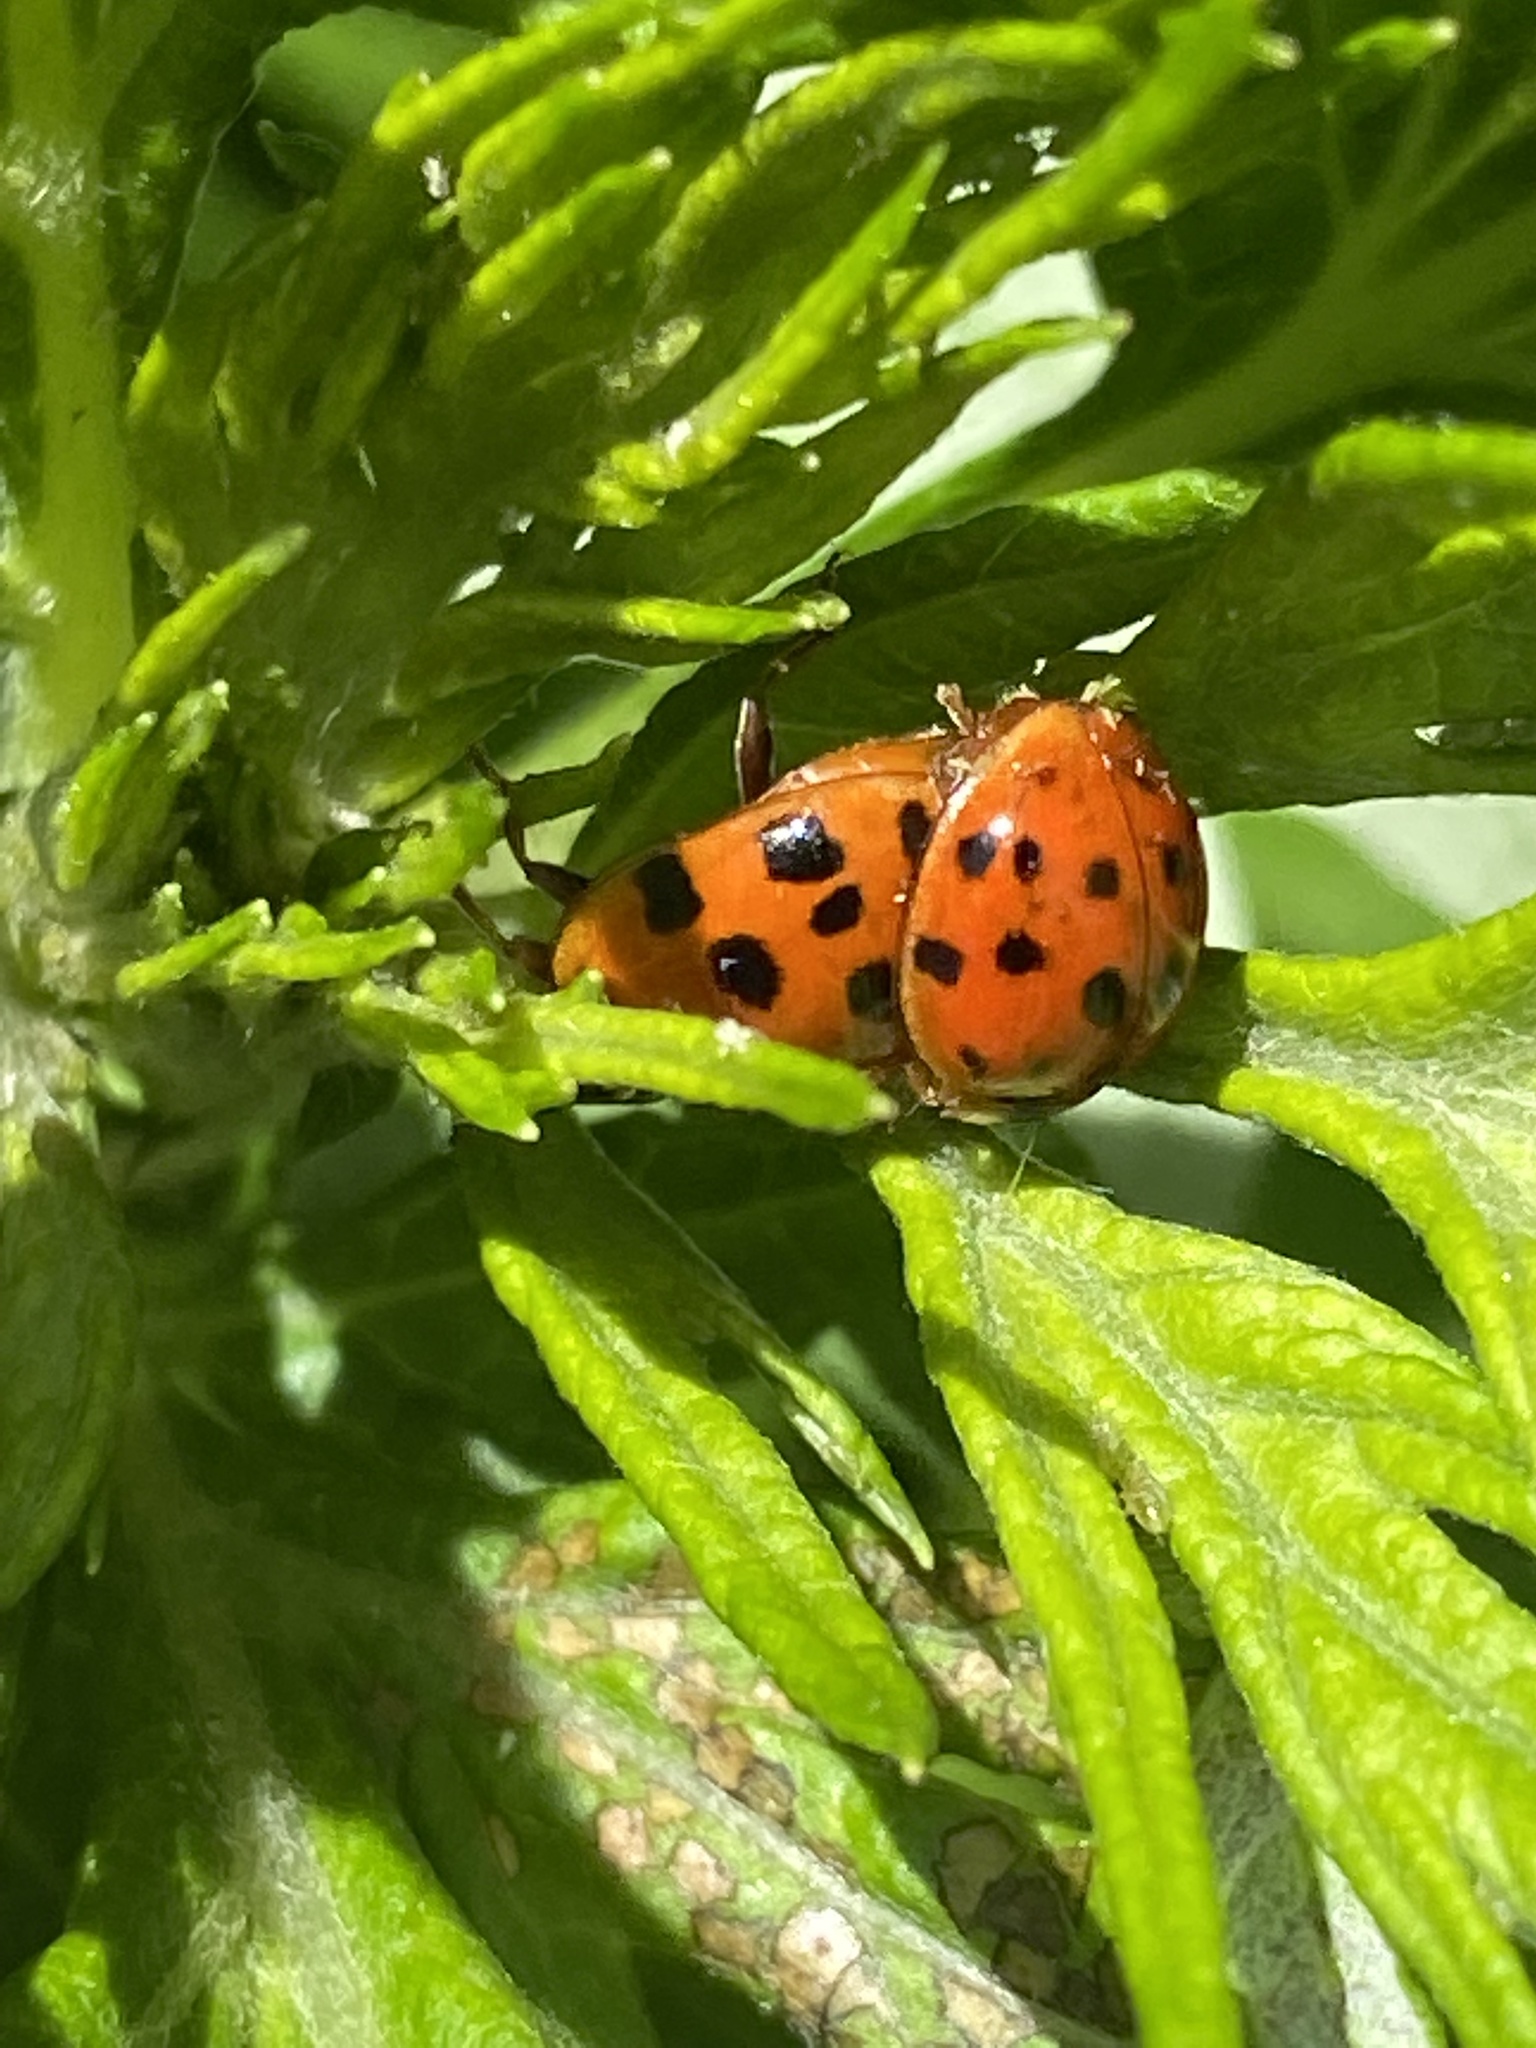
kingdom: Animalia
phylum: Arthropoda
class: Insecta
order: Coleoptera
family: Coccinellidae
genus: Harmonia
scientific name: Harmonia axyridis
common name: Harlequin ladybird
